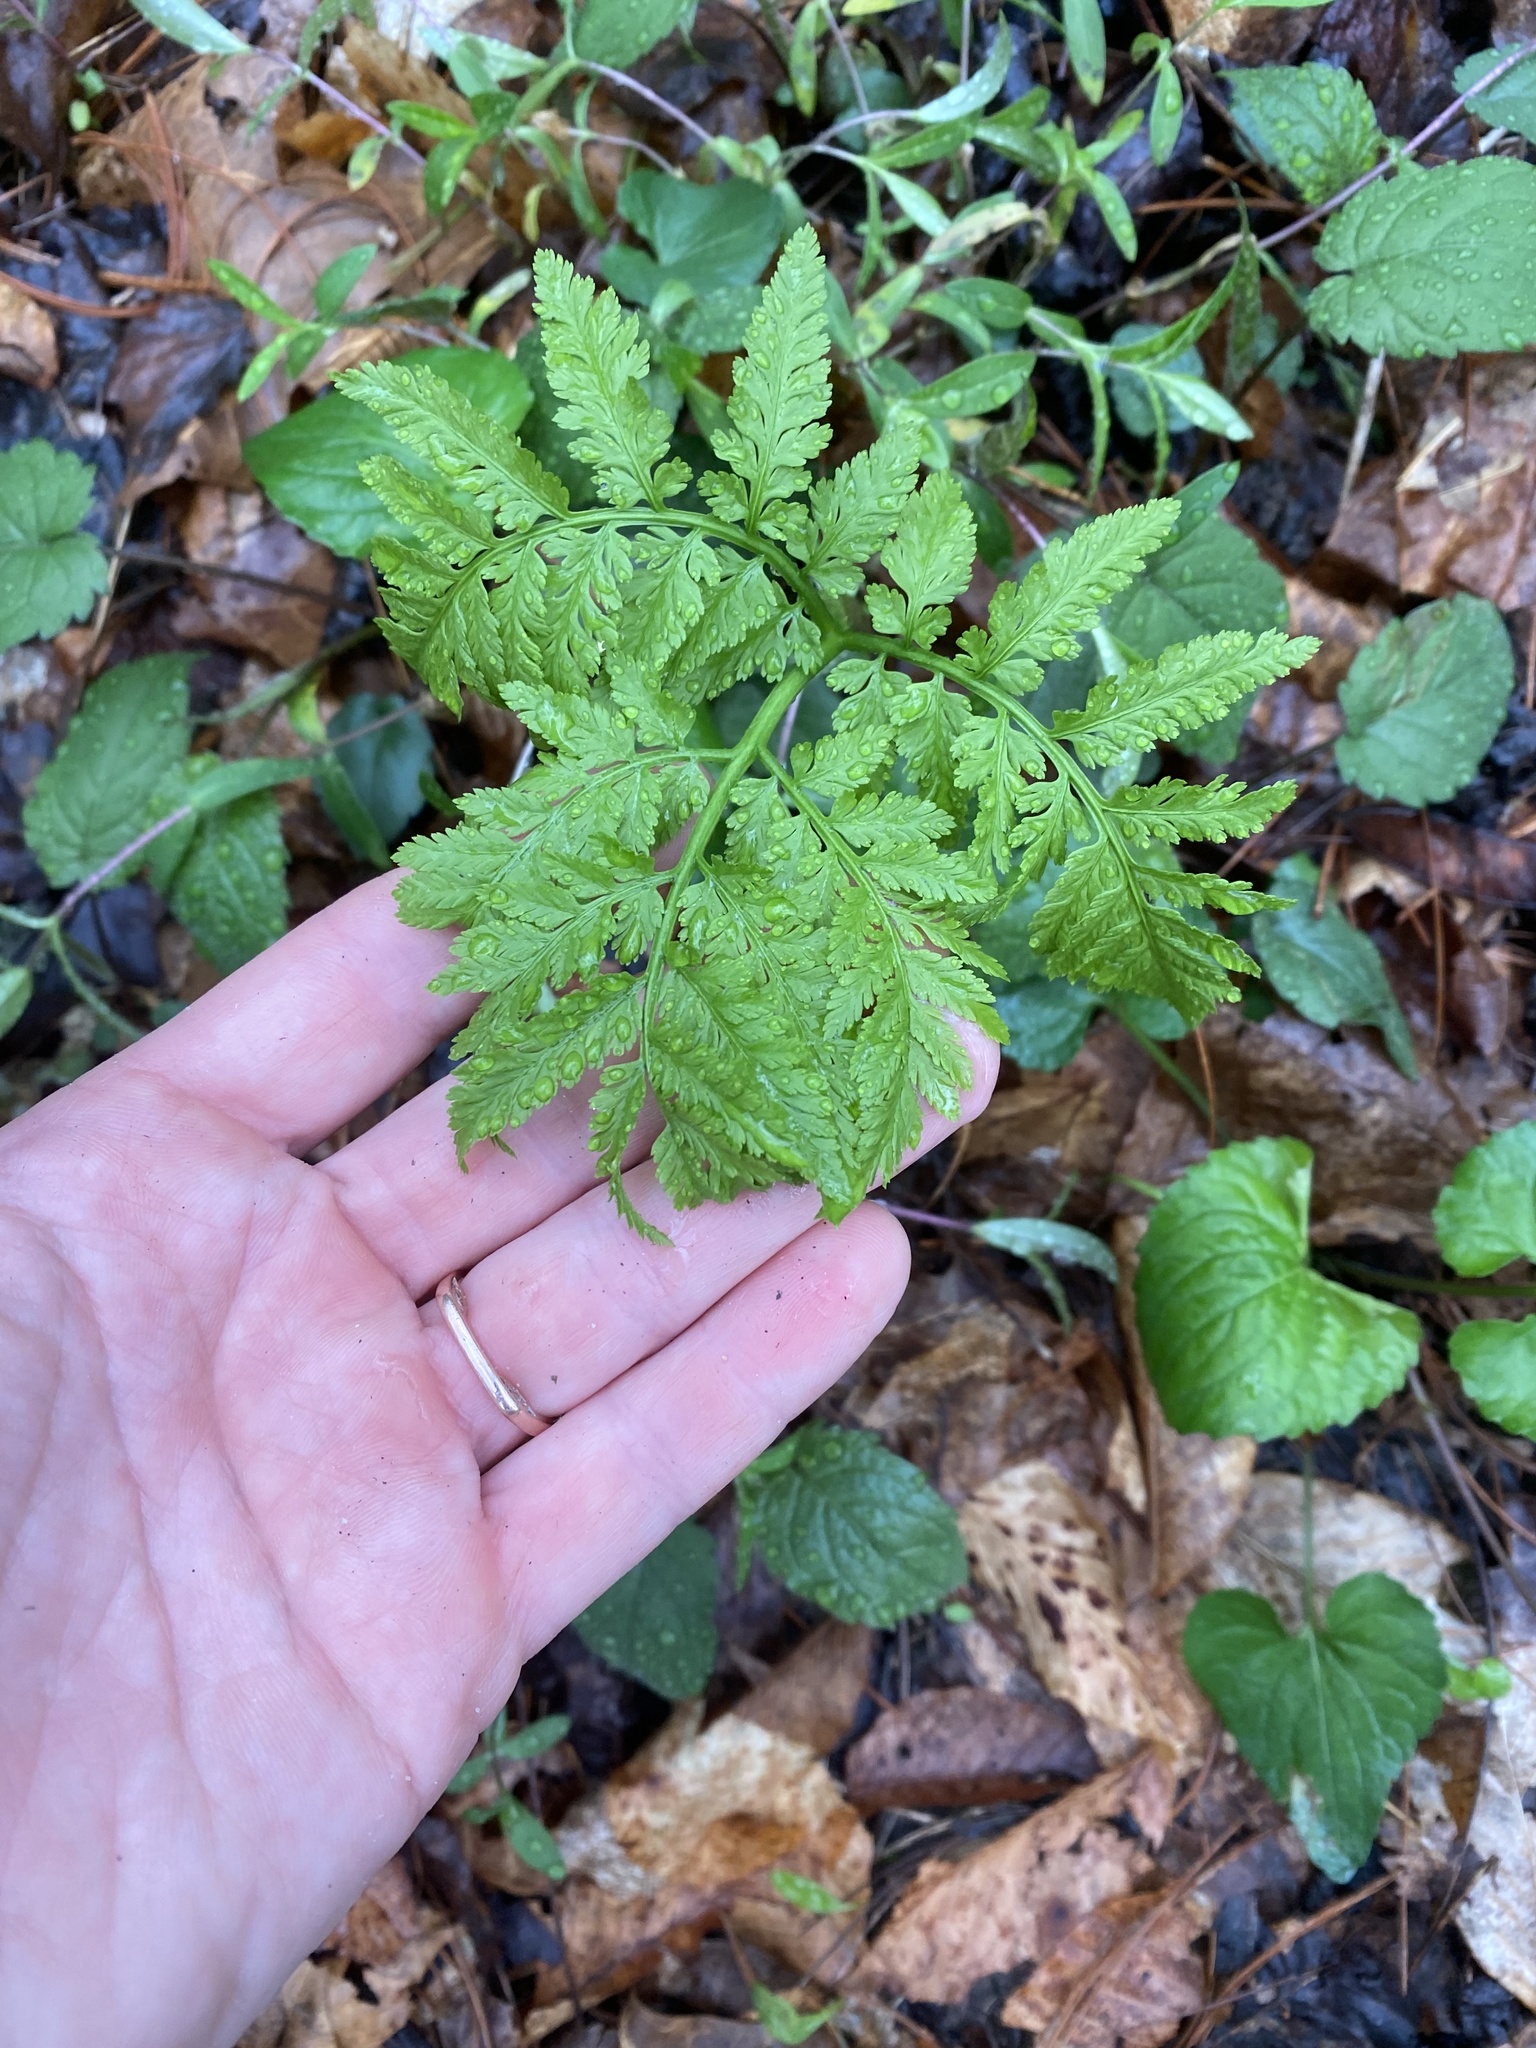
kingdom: Plantae
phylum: Tracheophyta
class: Polypodiopsida
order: Ophioglossales
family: Ophioglossaceae
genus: Botrypus
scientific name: Botrypus virginianus
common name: Common grapefern
